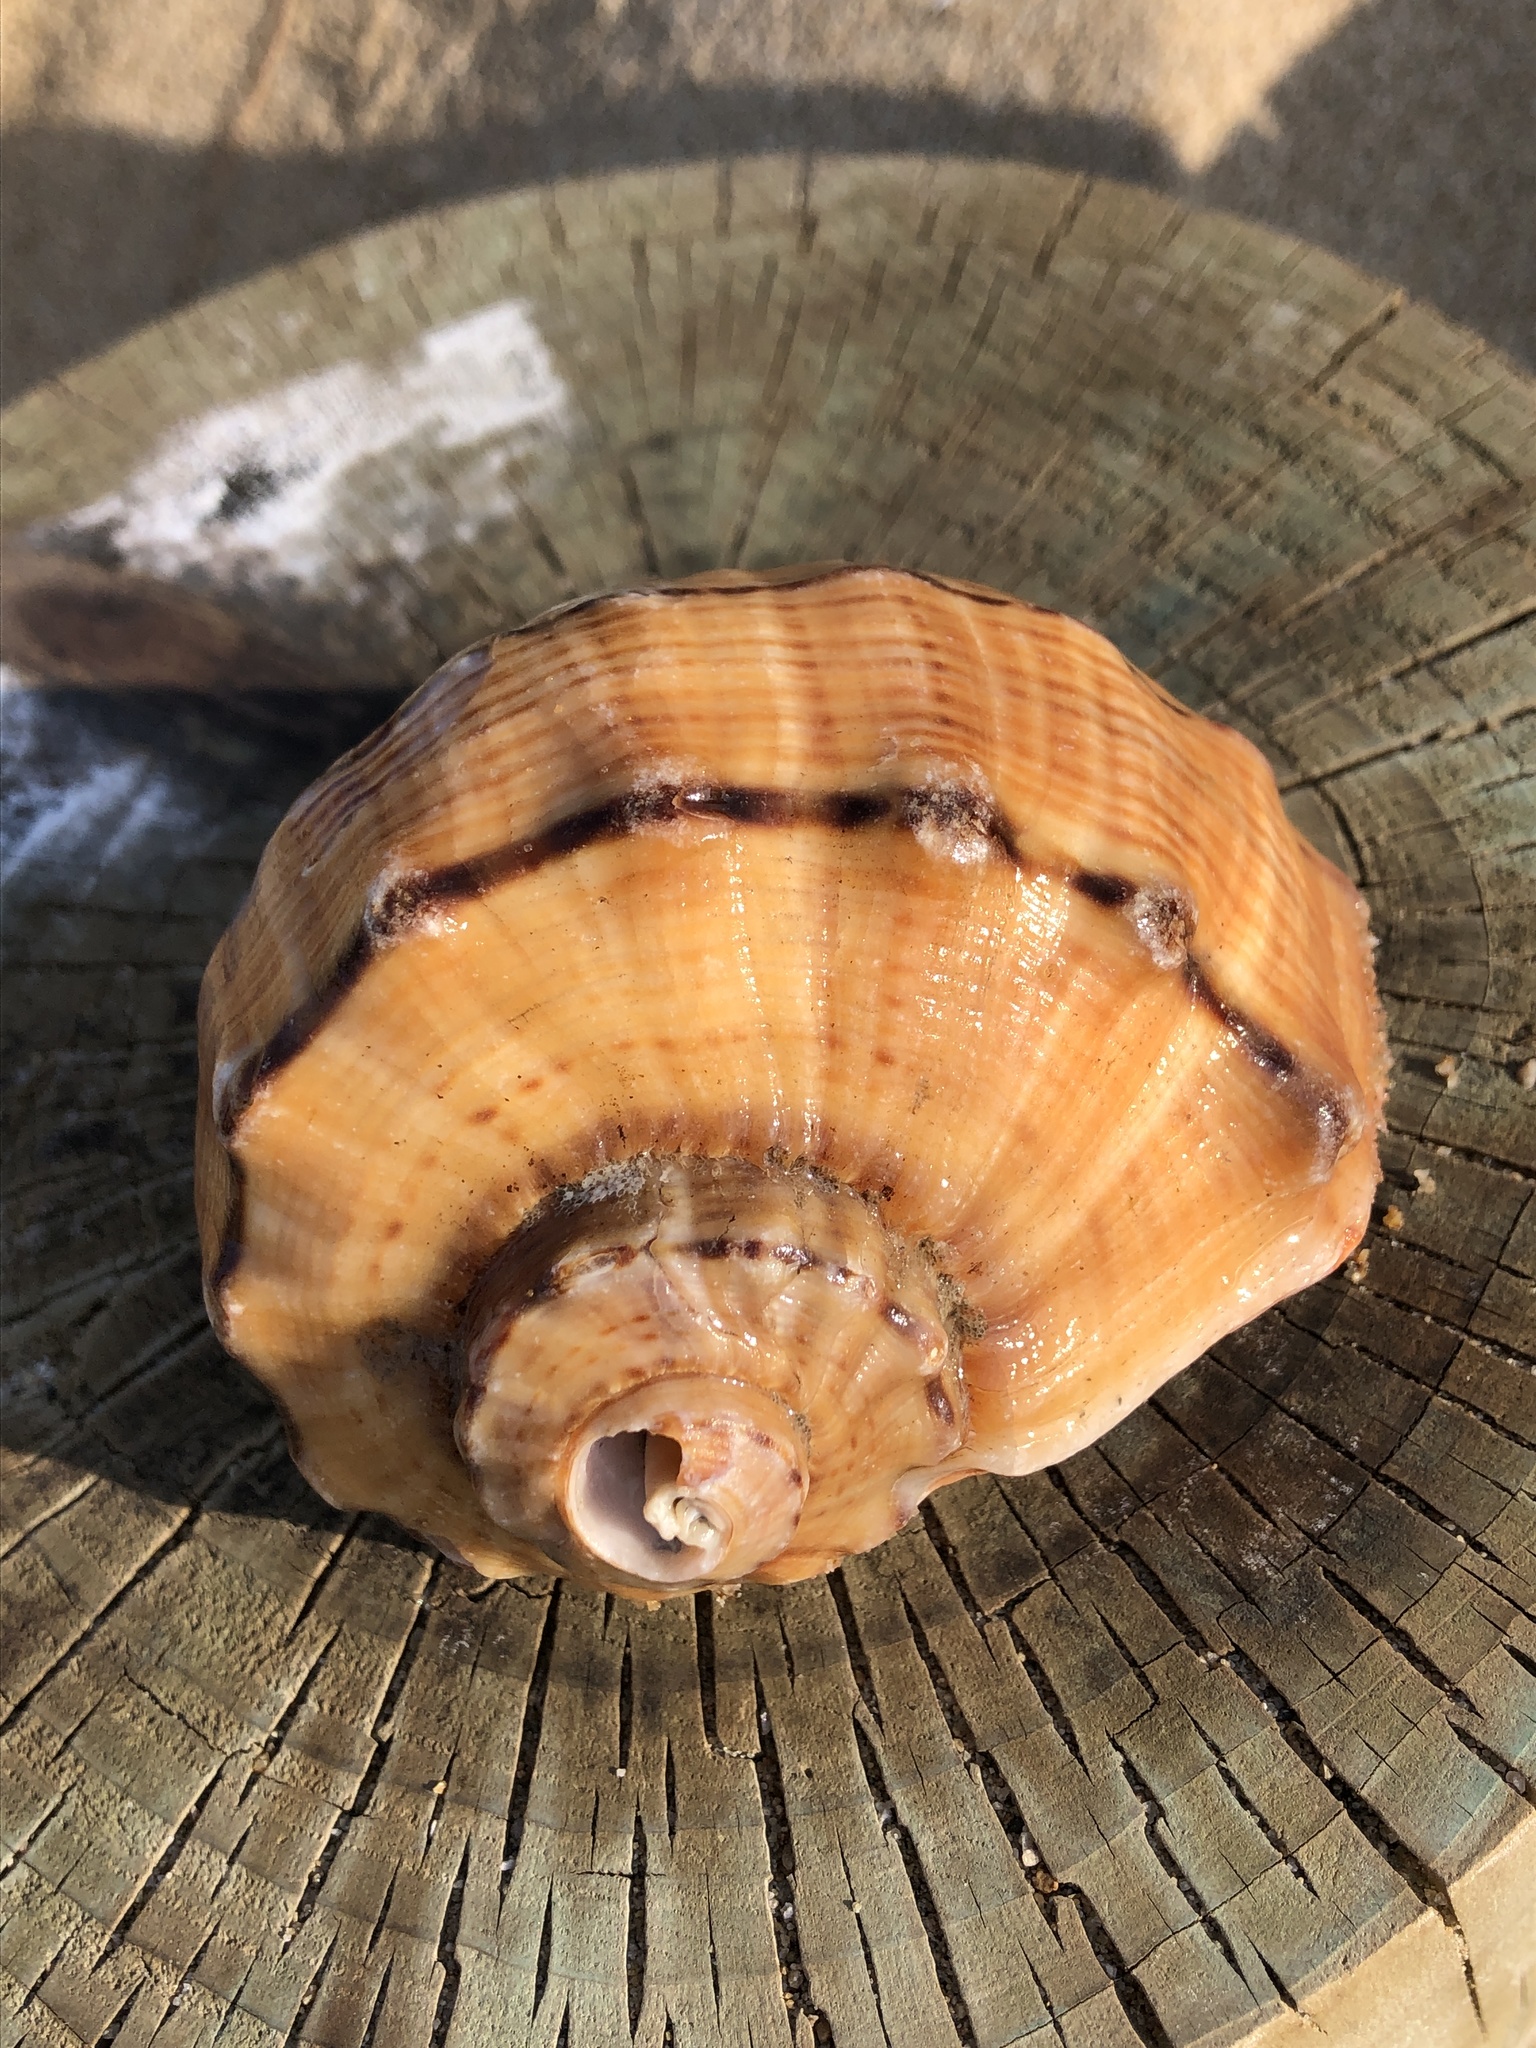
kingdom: Animalia
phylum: Mollusca
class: Gastropoda
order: Neogastropoda
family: Muricidae
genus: Rapana
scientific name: Rapana venosa
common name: Veined rapa whelk
